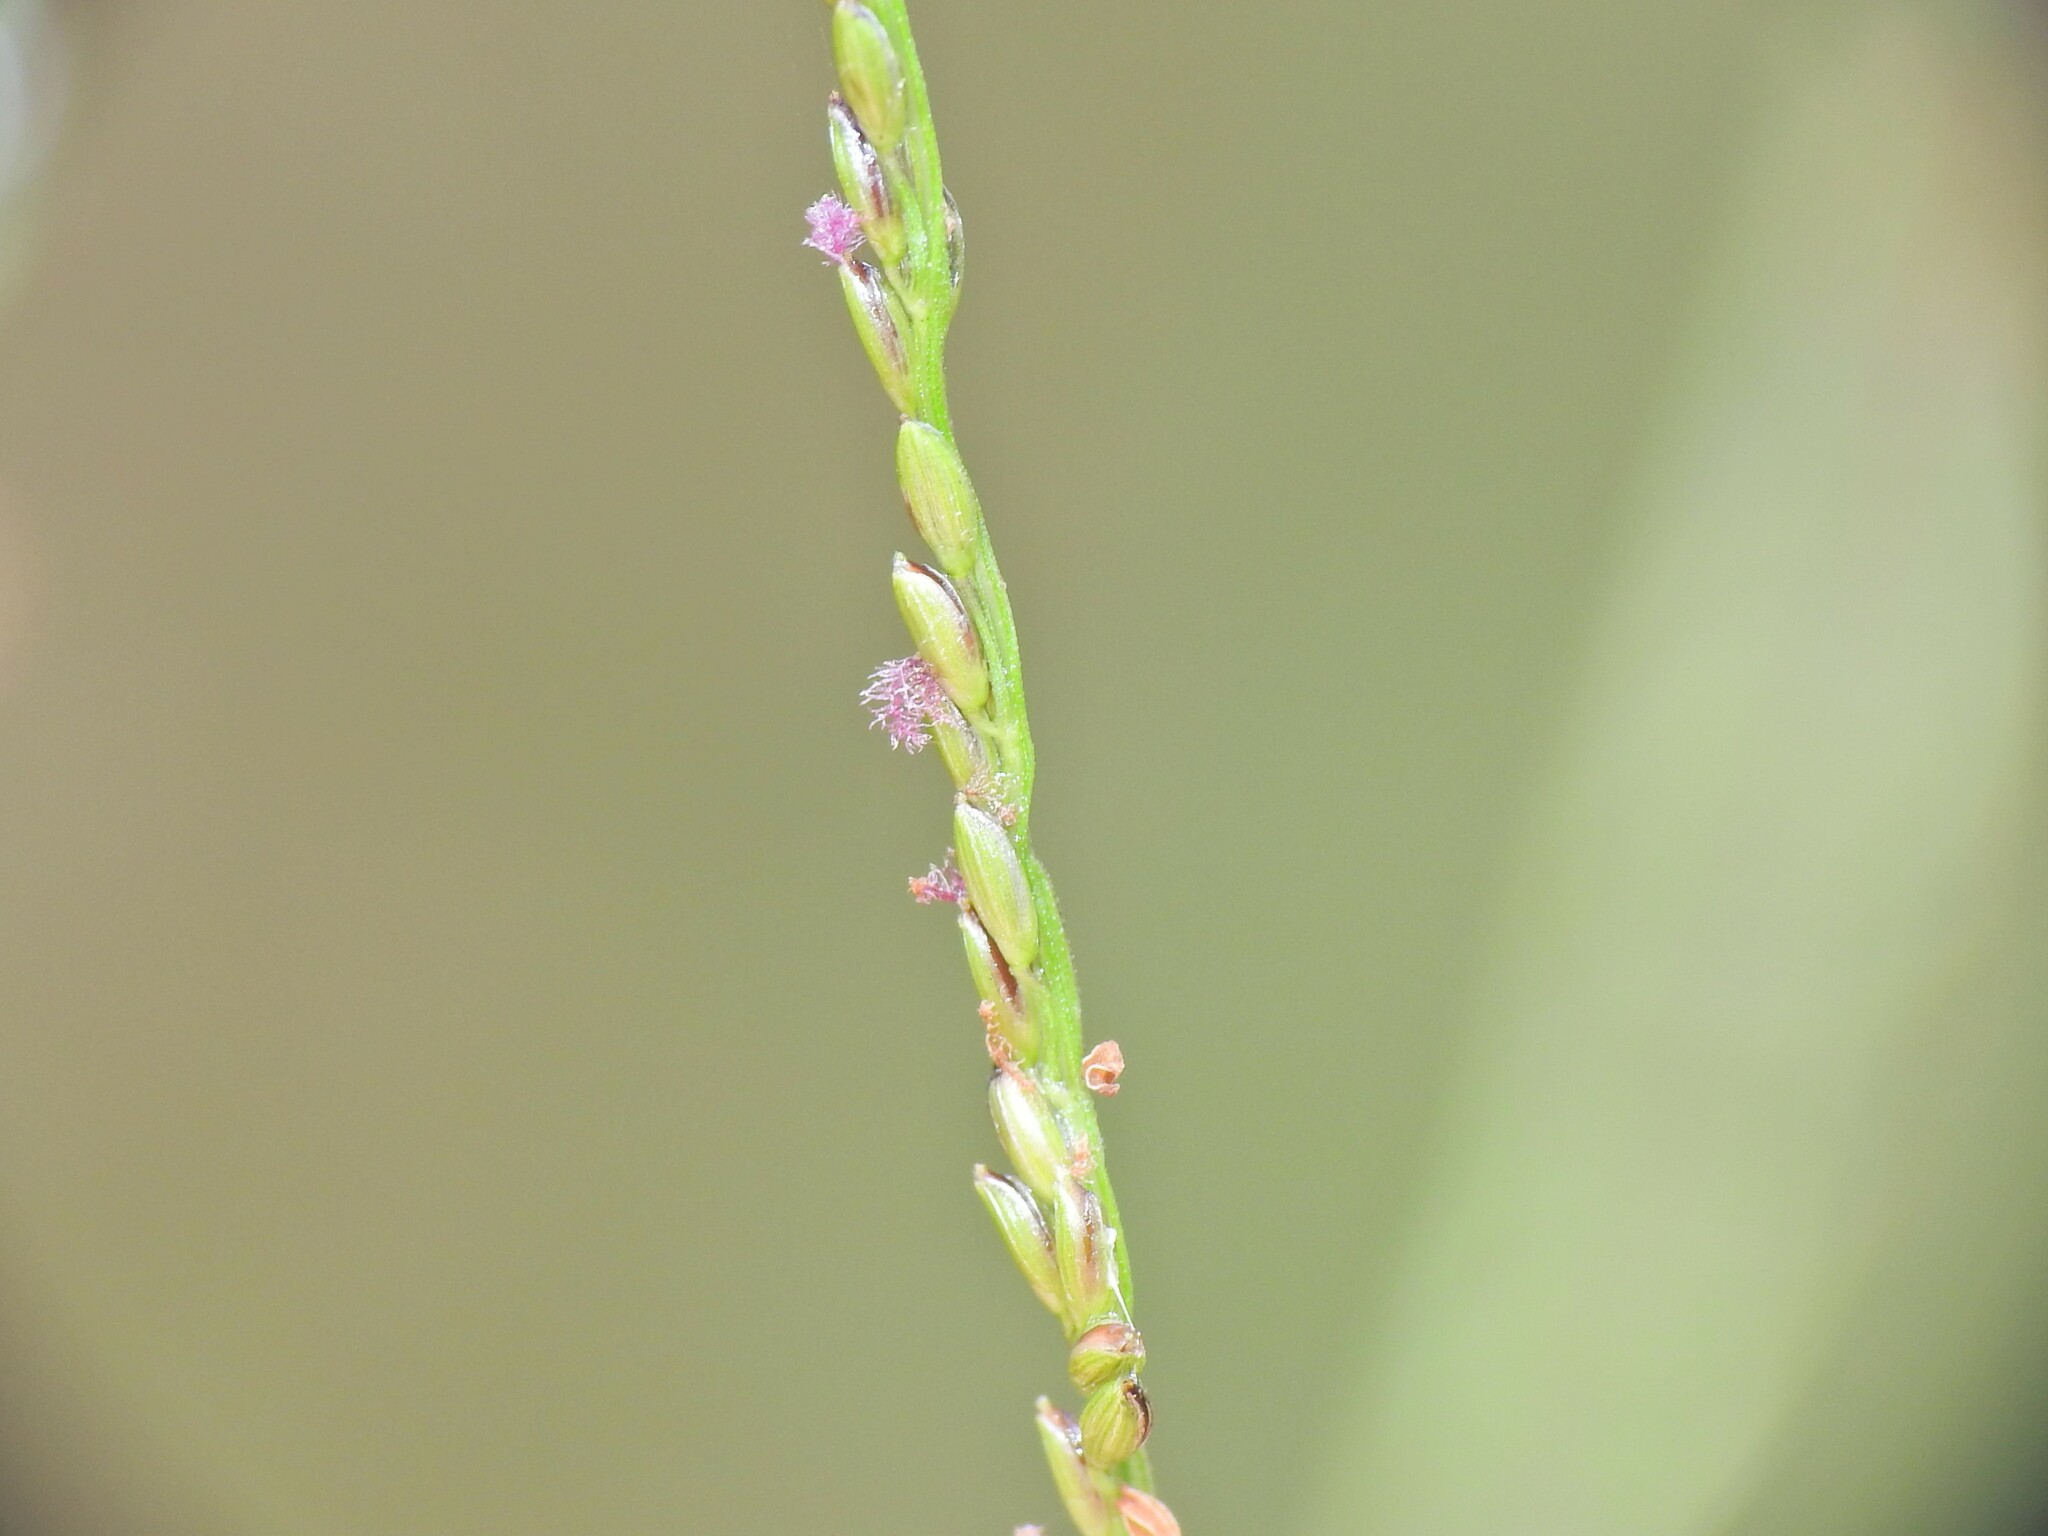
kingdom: Plantae
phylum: Tracheophyta
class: Liliopsida
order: Poales
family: Poaceae
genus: Digitaria
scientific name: Digitaria parviflora
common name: Small-flower finger grass
